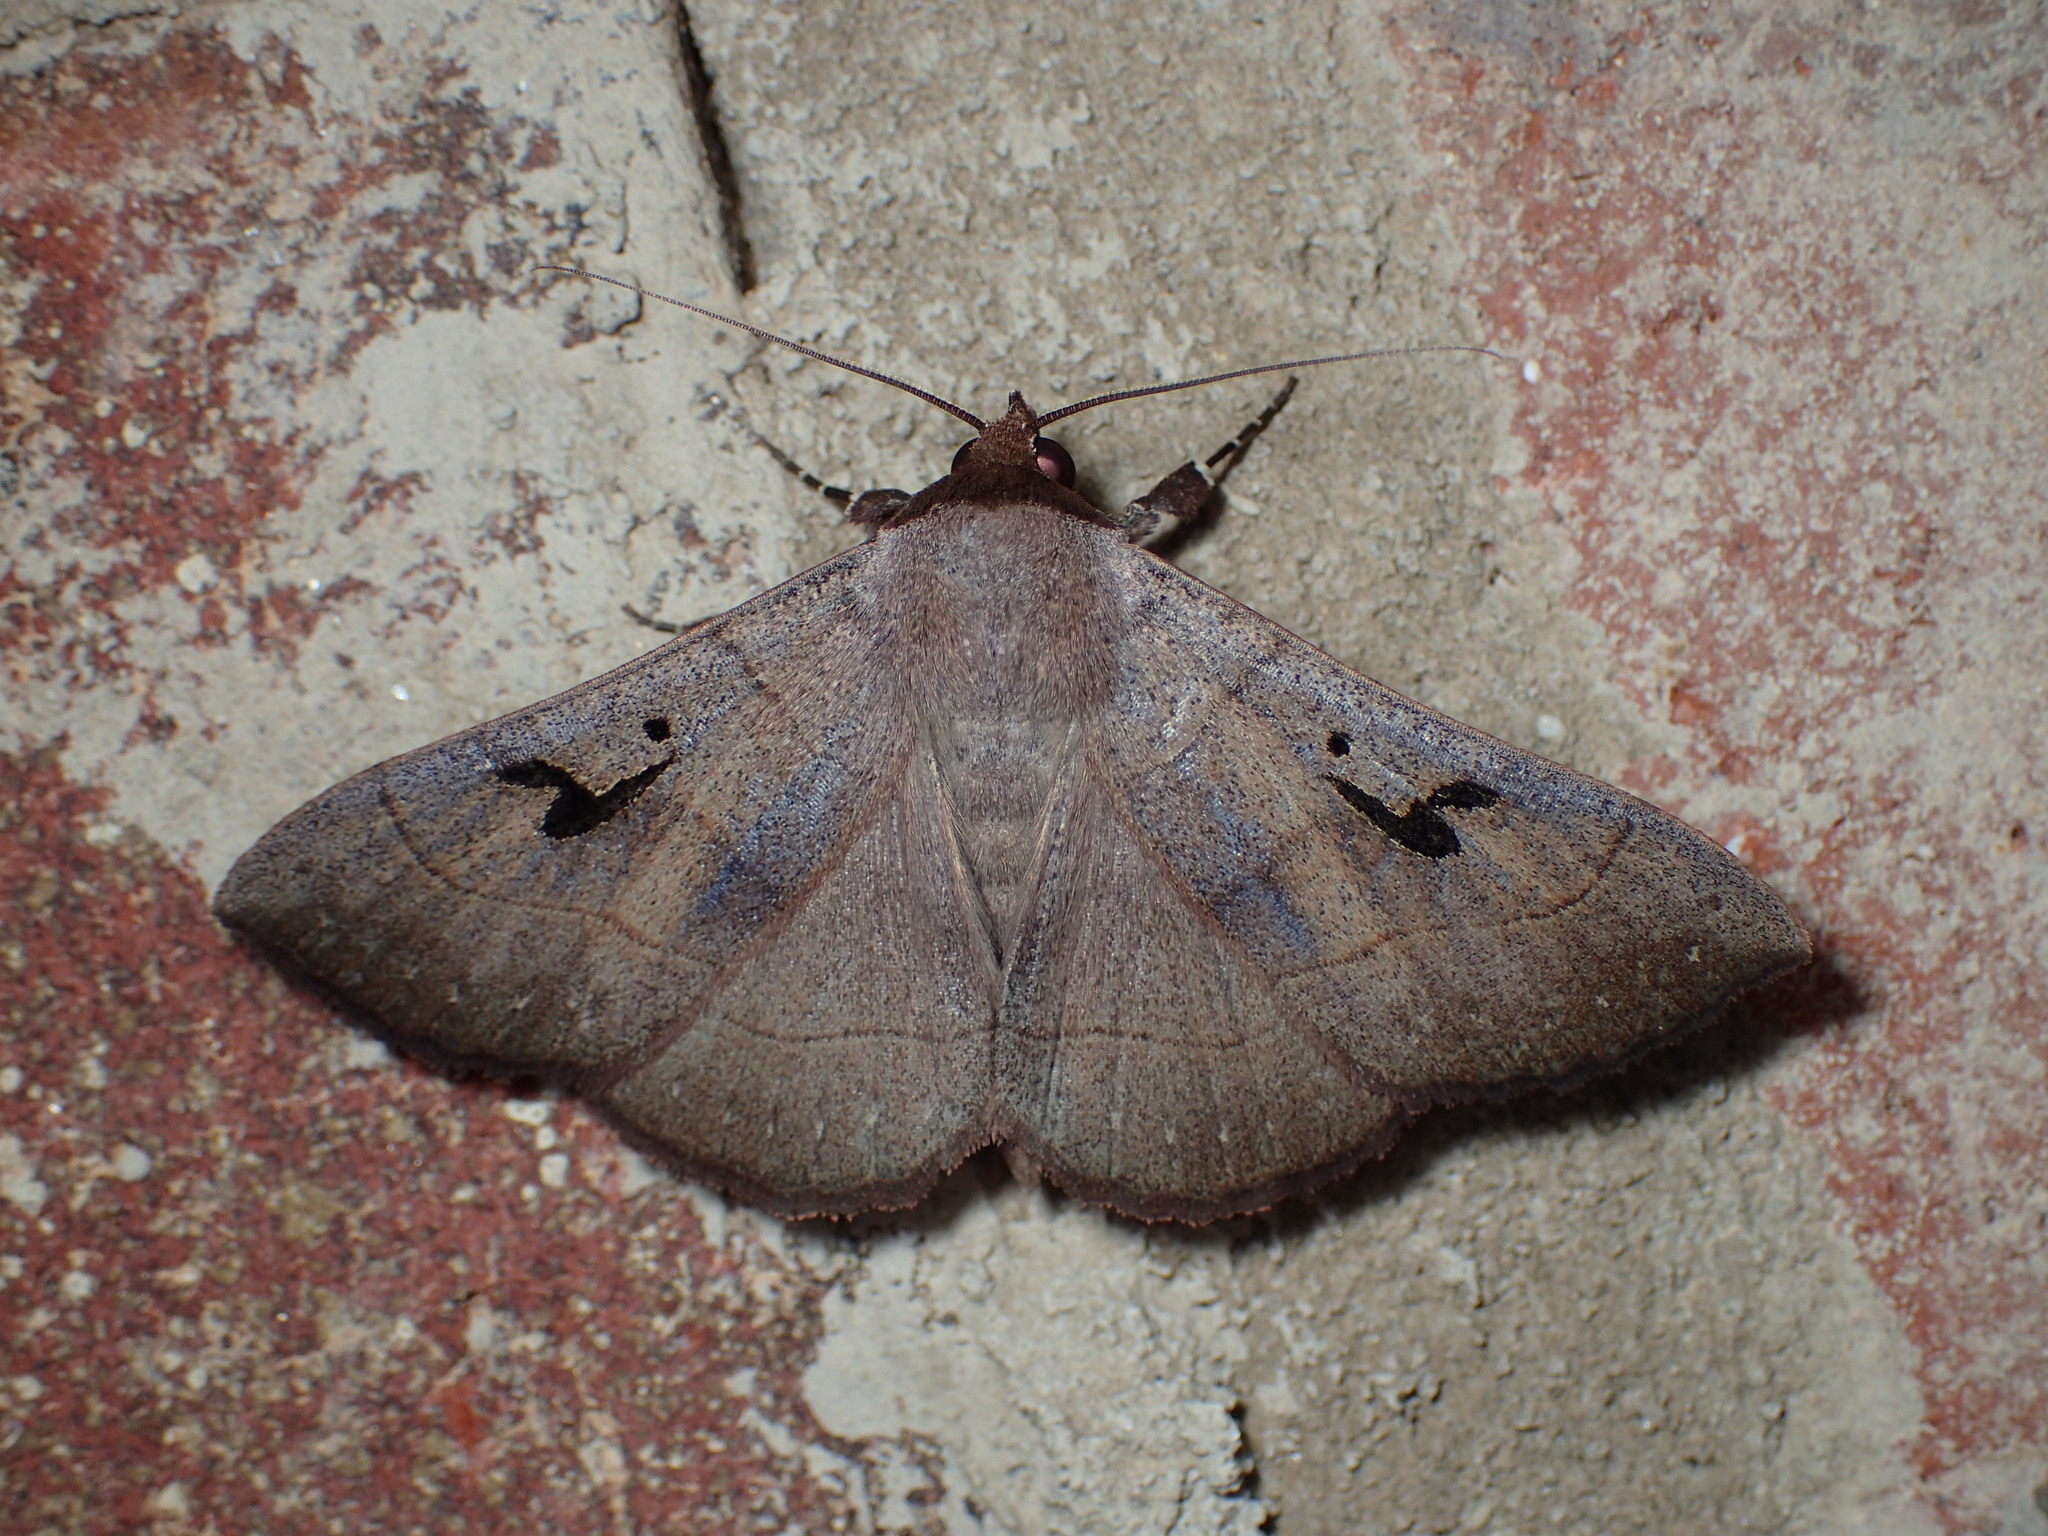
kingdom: Animalia
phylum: Arthropoda
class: Insecta
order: Lepidoptera
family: Erebidae
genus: Panopoda
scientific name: Panopoda carneicosta
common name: Brown panopoda moth
